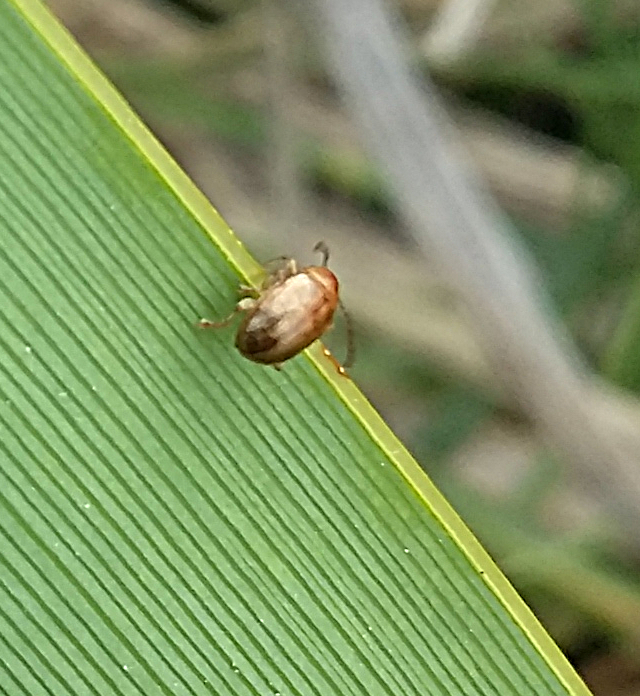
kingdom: Animalia
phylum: Arthropoda
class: Insecta
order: Coleoptera
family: Chrysomelidae
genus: Eucolaspis
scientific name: Eucolaspis
